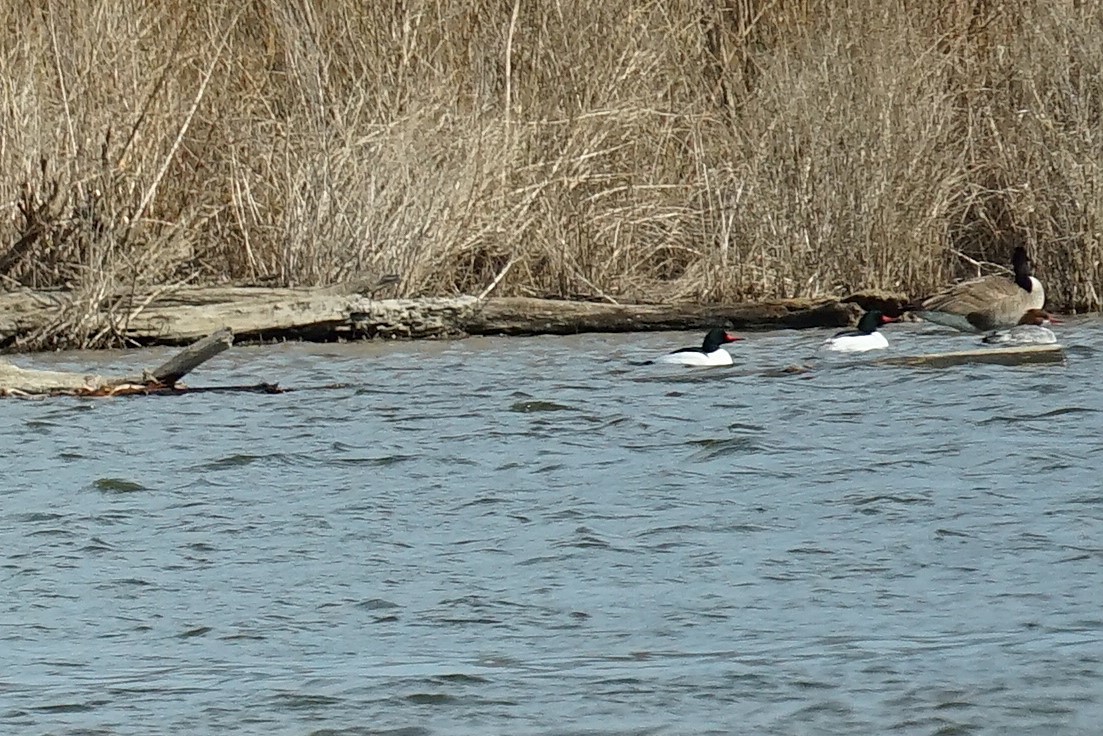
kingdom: Animalia
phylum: Chordata
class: Aves
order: Anseriformes
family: Anatidae
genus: Mergus
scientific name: Mergus merganser
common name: Common merganser
